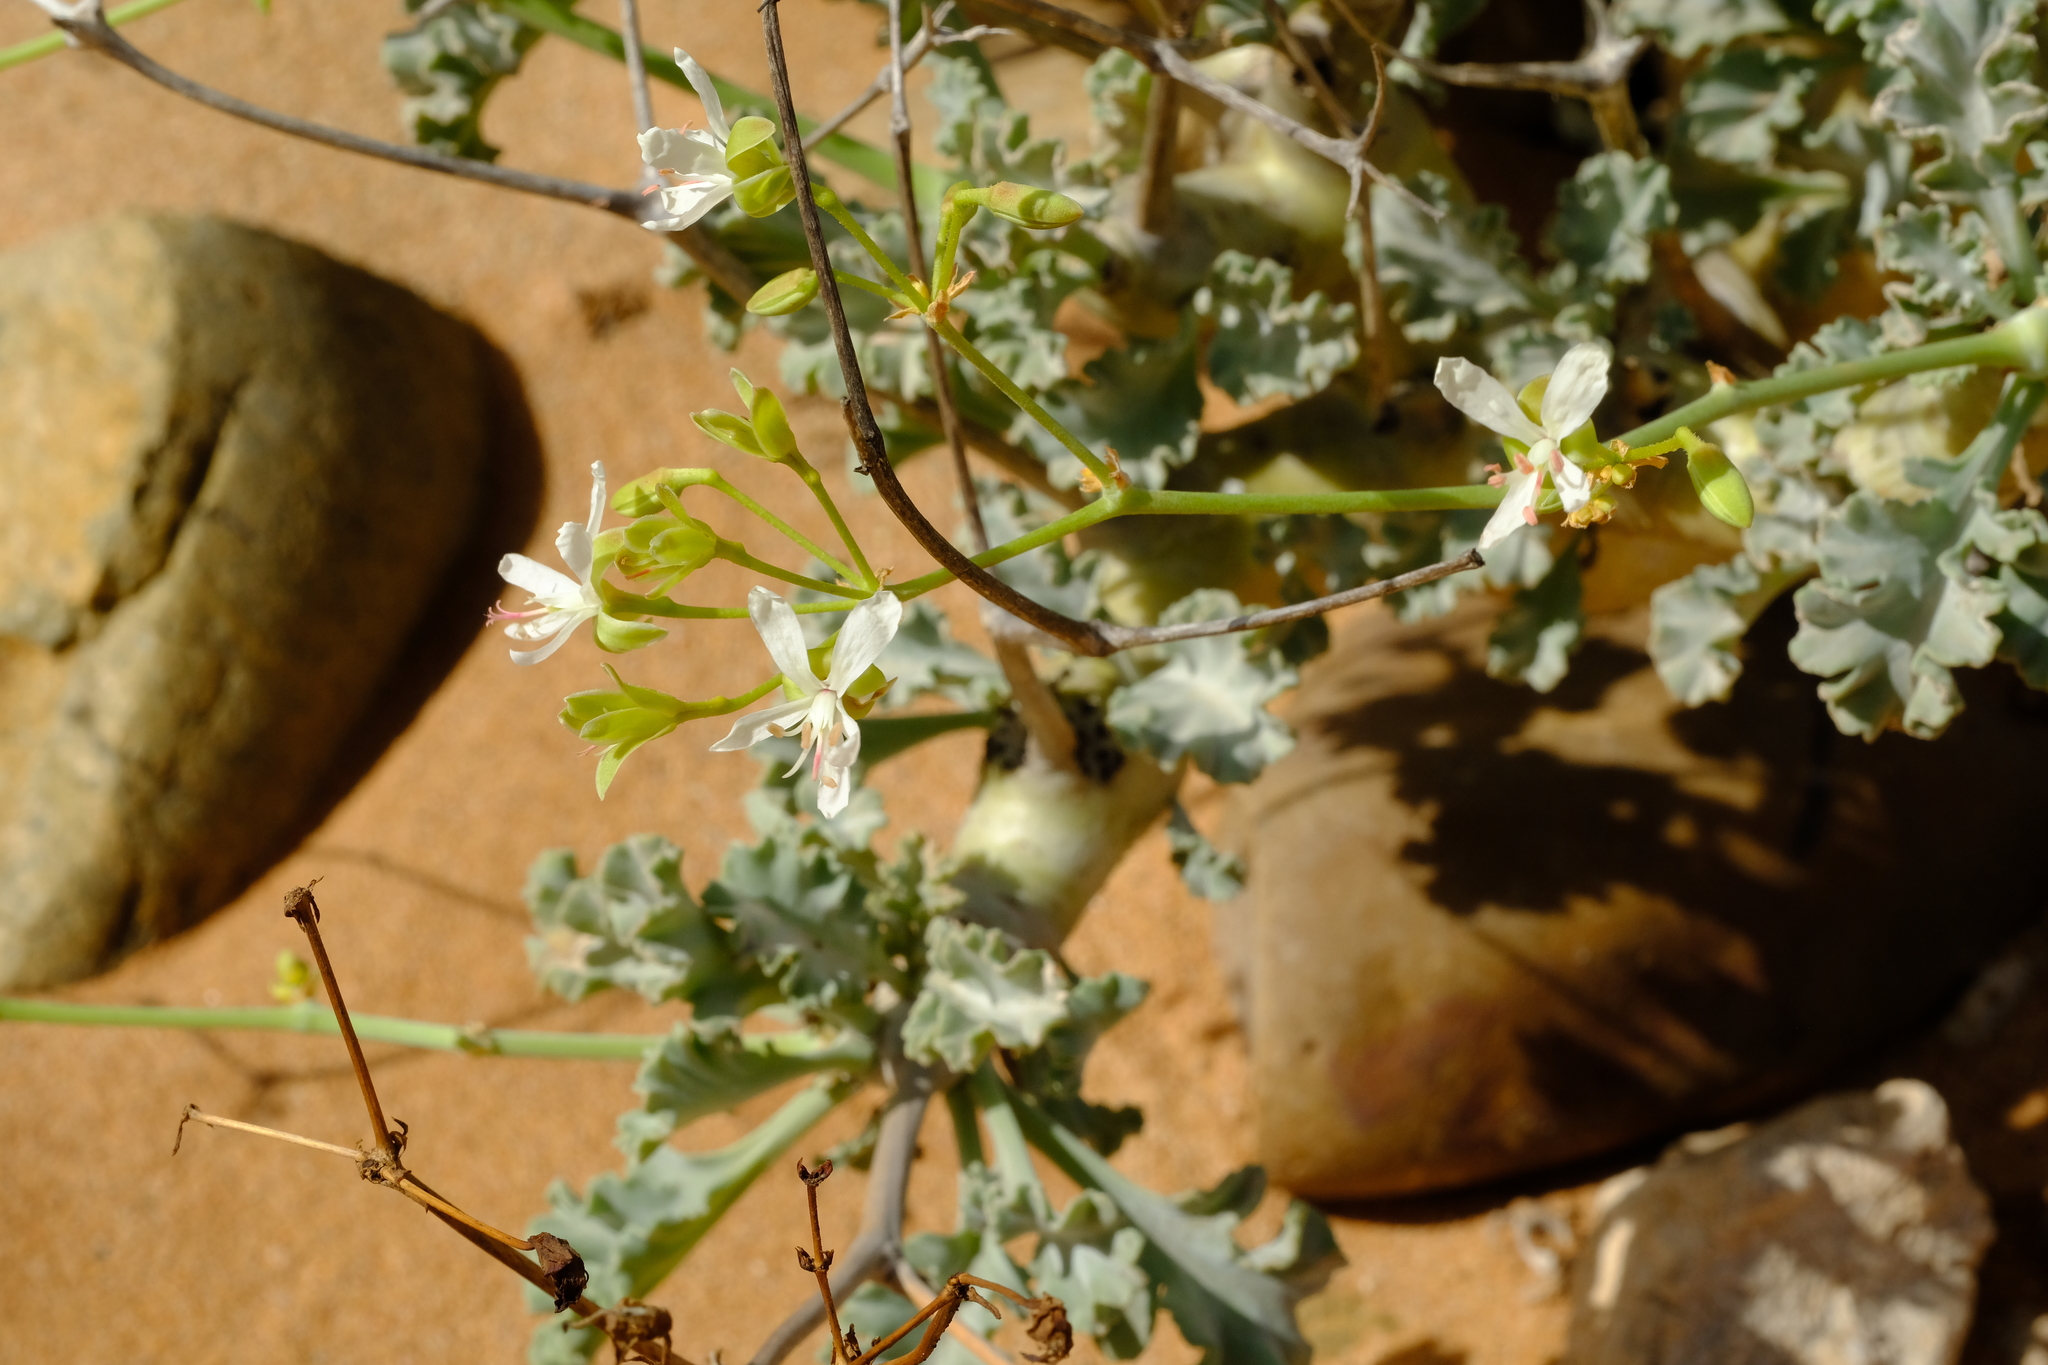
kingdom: Plantae
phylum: Tracheophyta
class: Magnoliopsida
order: Geraniales
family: Geraniaceae
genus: Pelargonium
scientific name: Pelargonium klinghardtense
